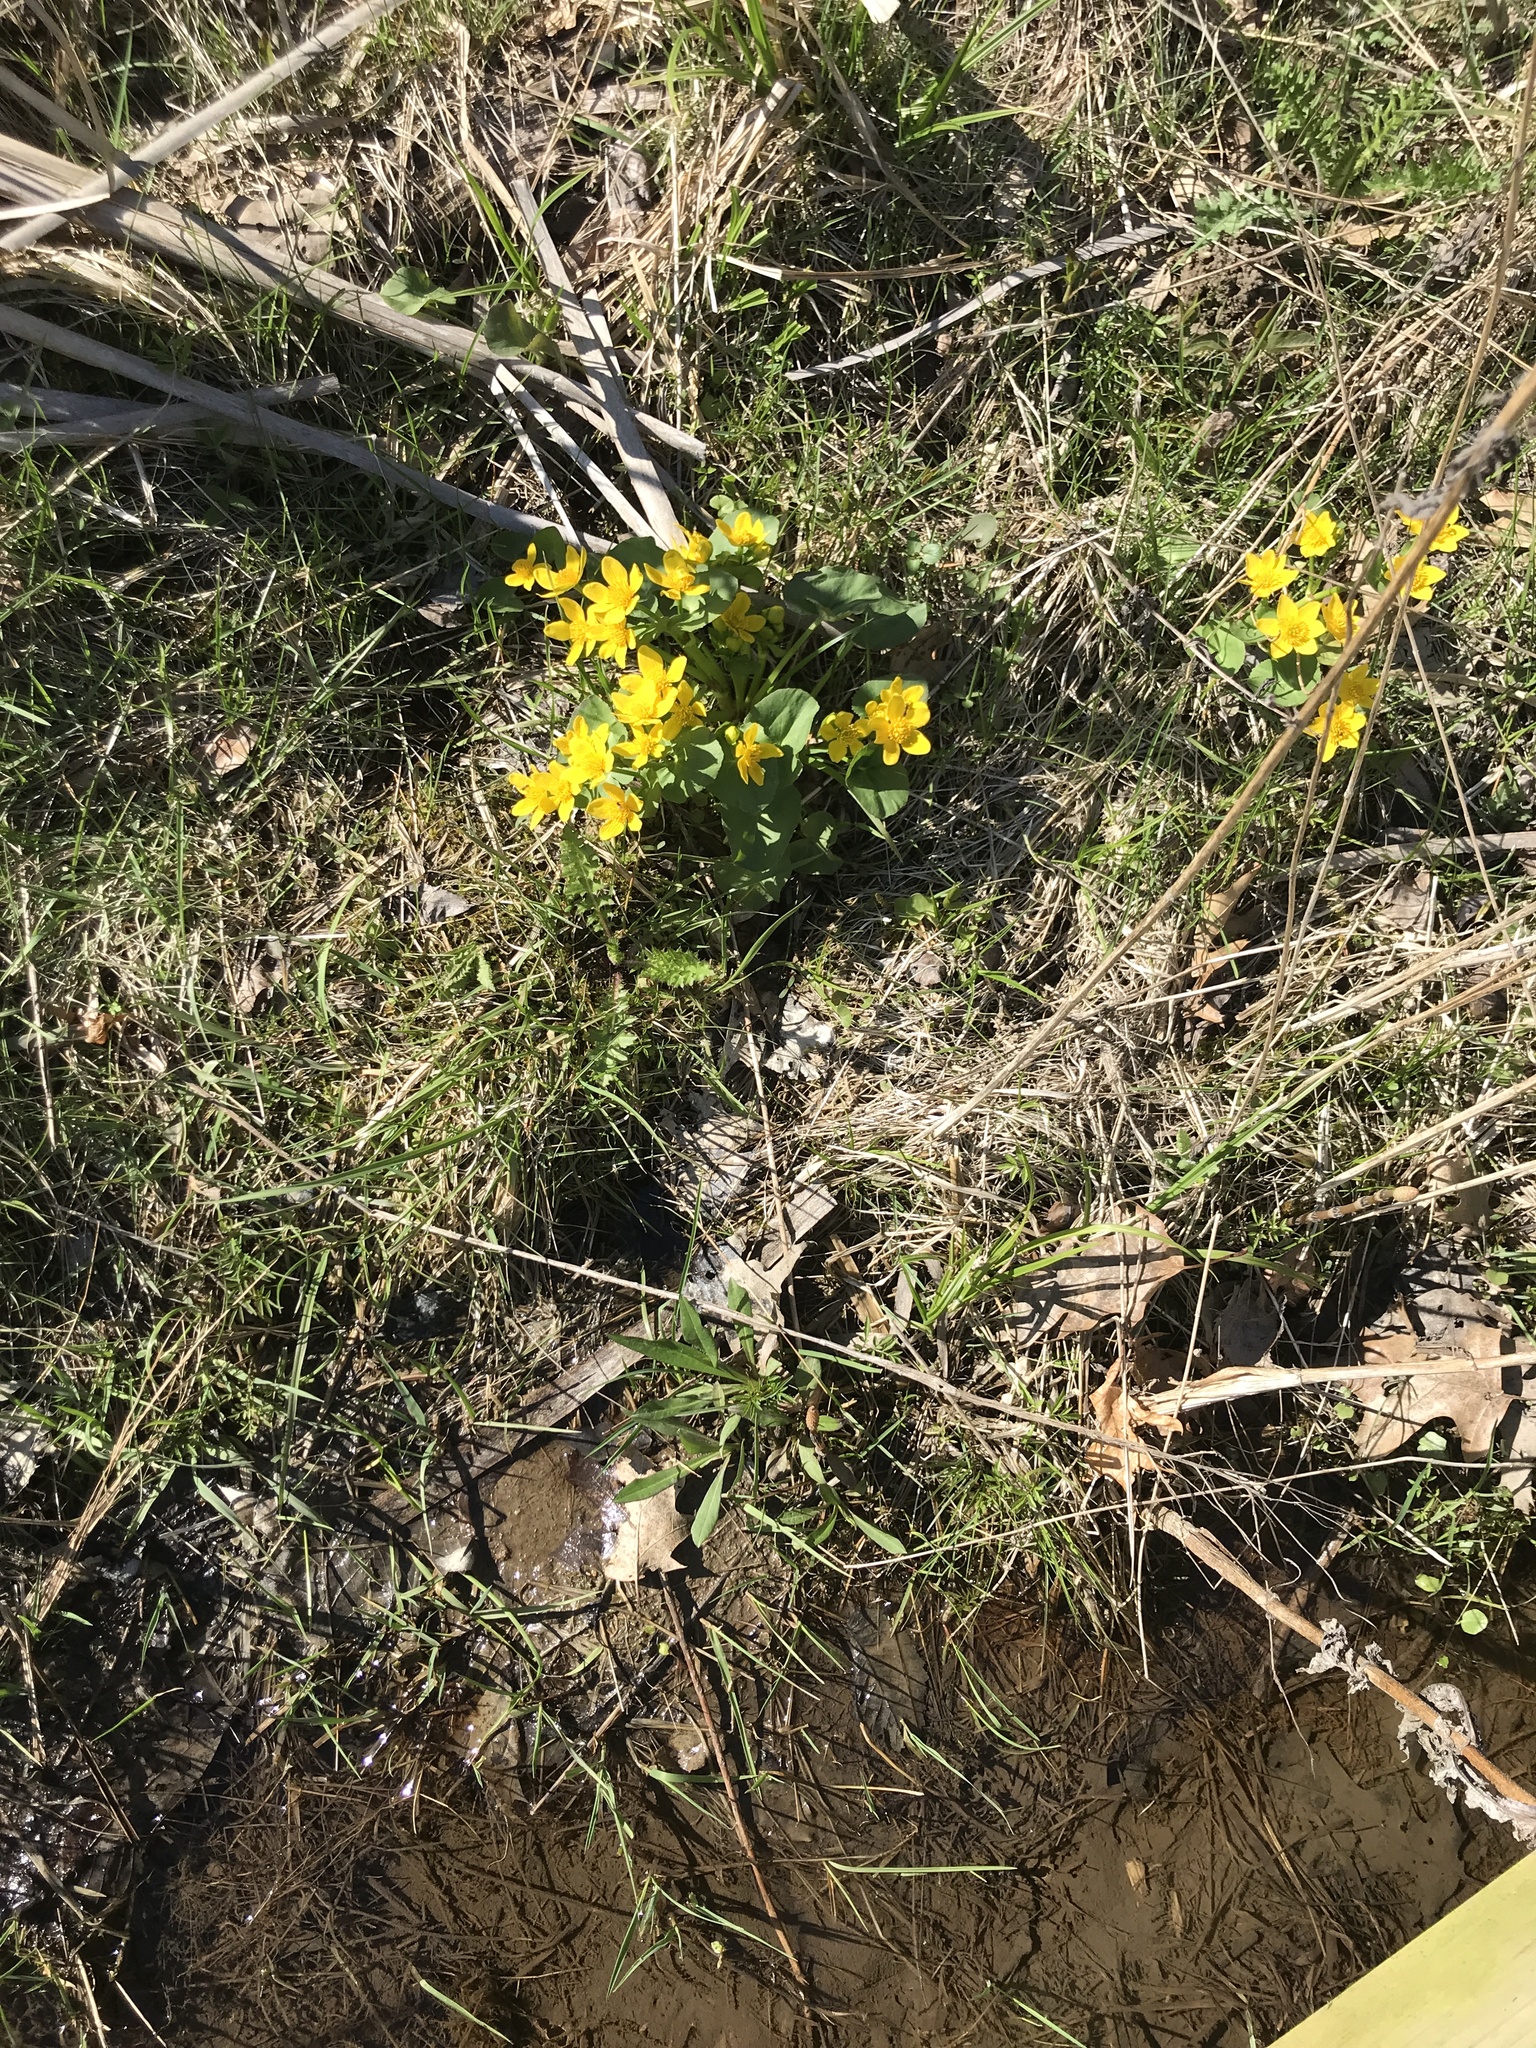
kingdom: Plantae
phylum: Tracheophyta
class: Magnoliopsida
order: Ranunculales
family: Ranunculaceae
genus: Caltha
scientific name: Caltha palustris
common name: Marsh marigold
